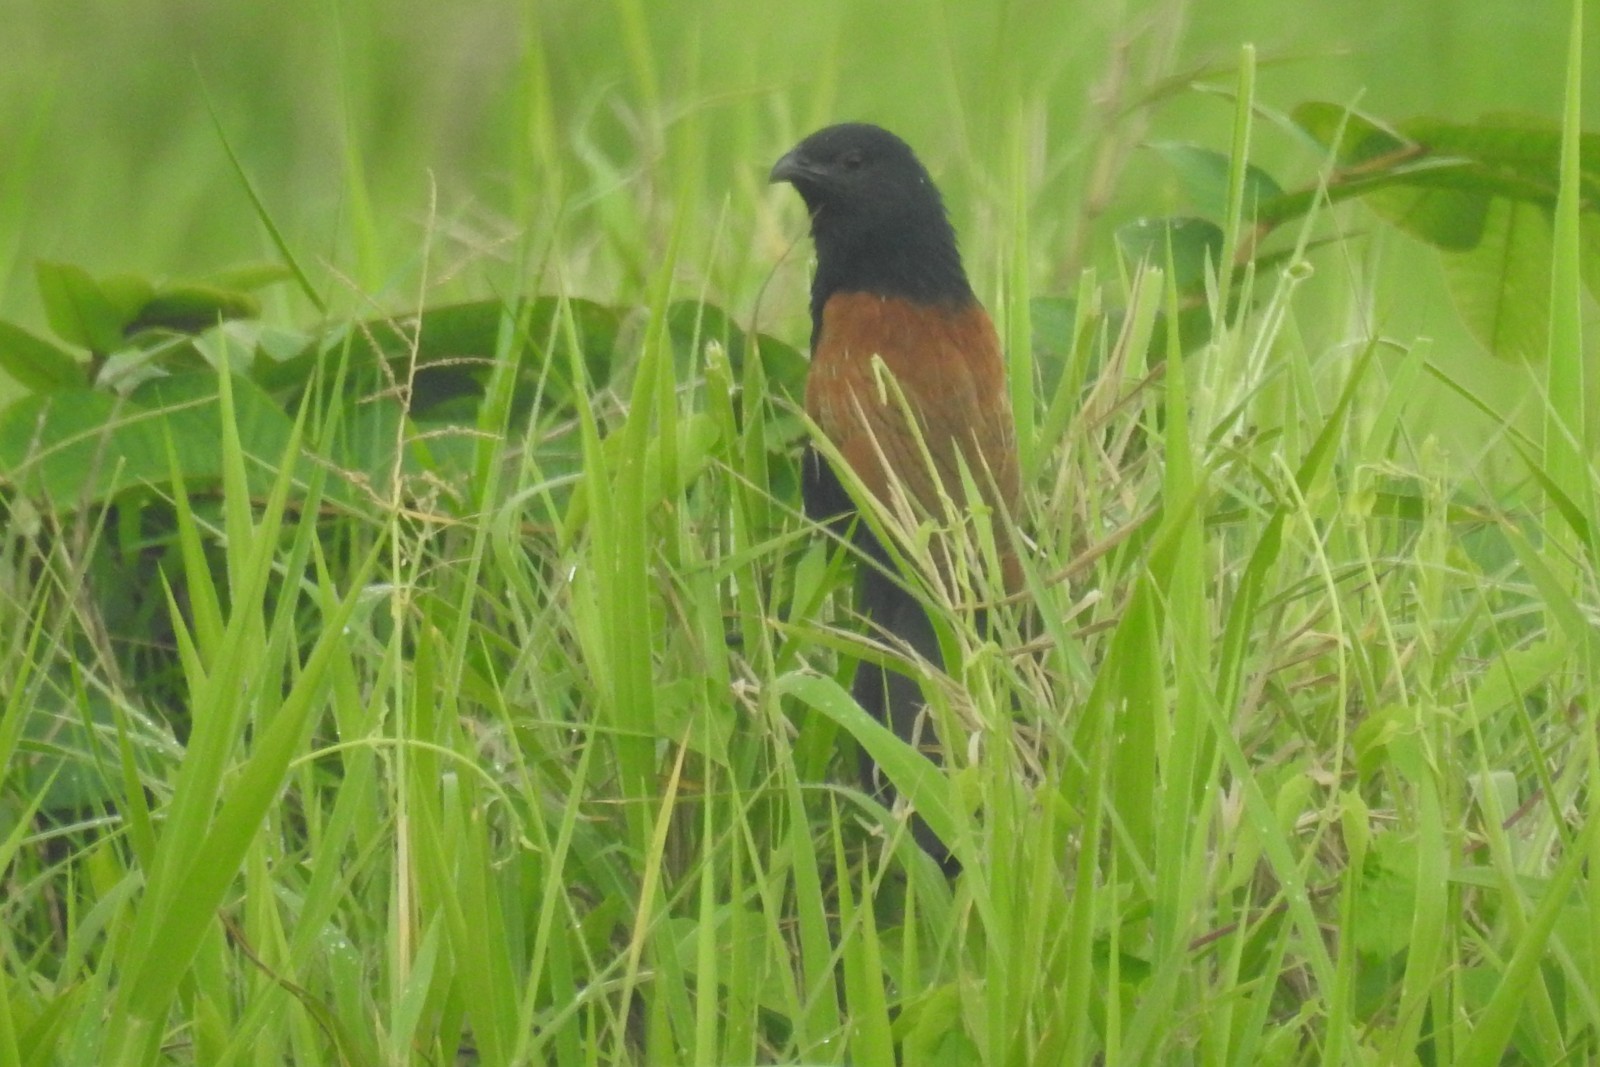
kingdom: Animalia
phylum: Chordata
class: Aves
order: Cuculiformes
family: Cuculidae
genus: Centropus
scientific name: Centropus bengalensis
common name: Lesser coucal
